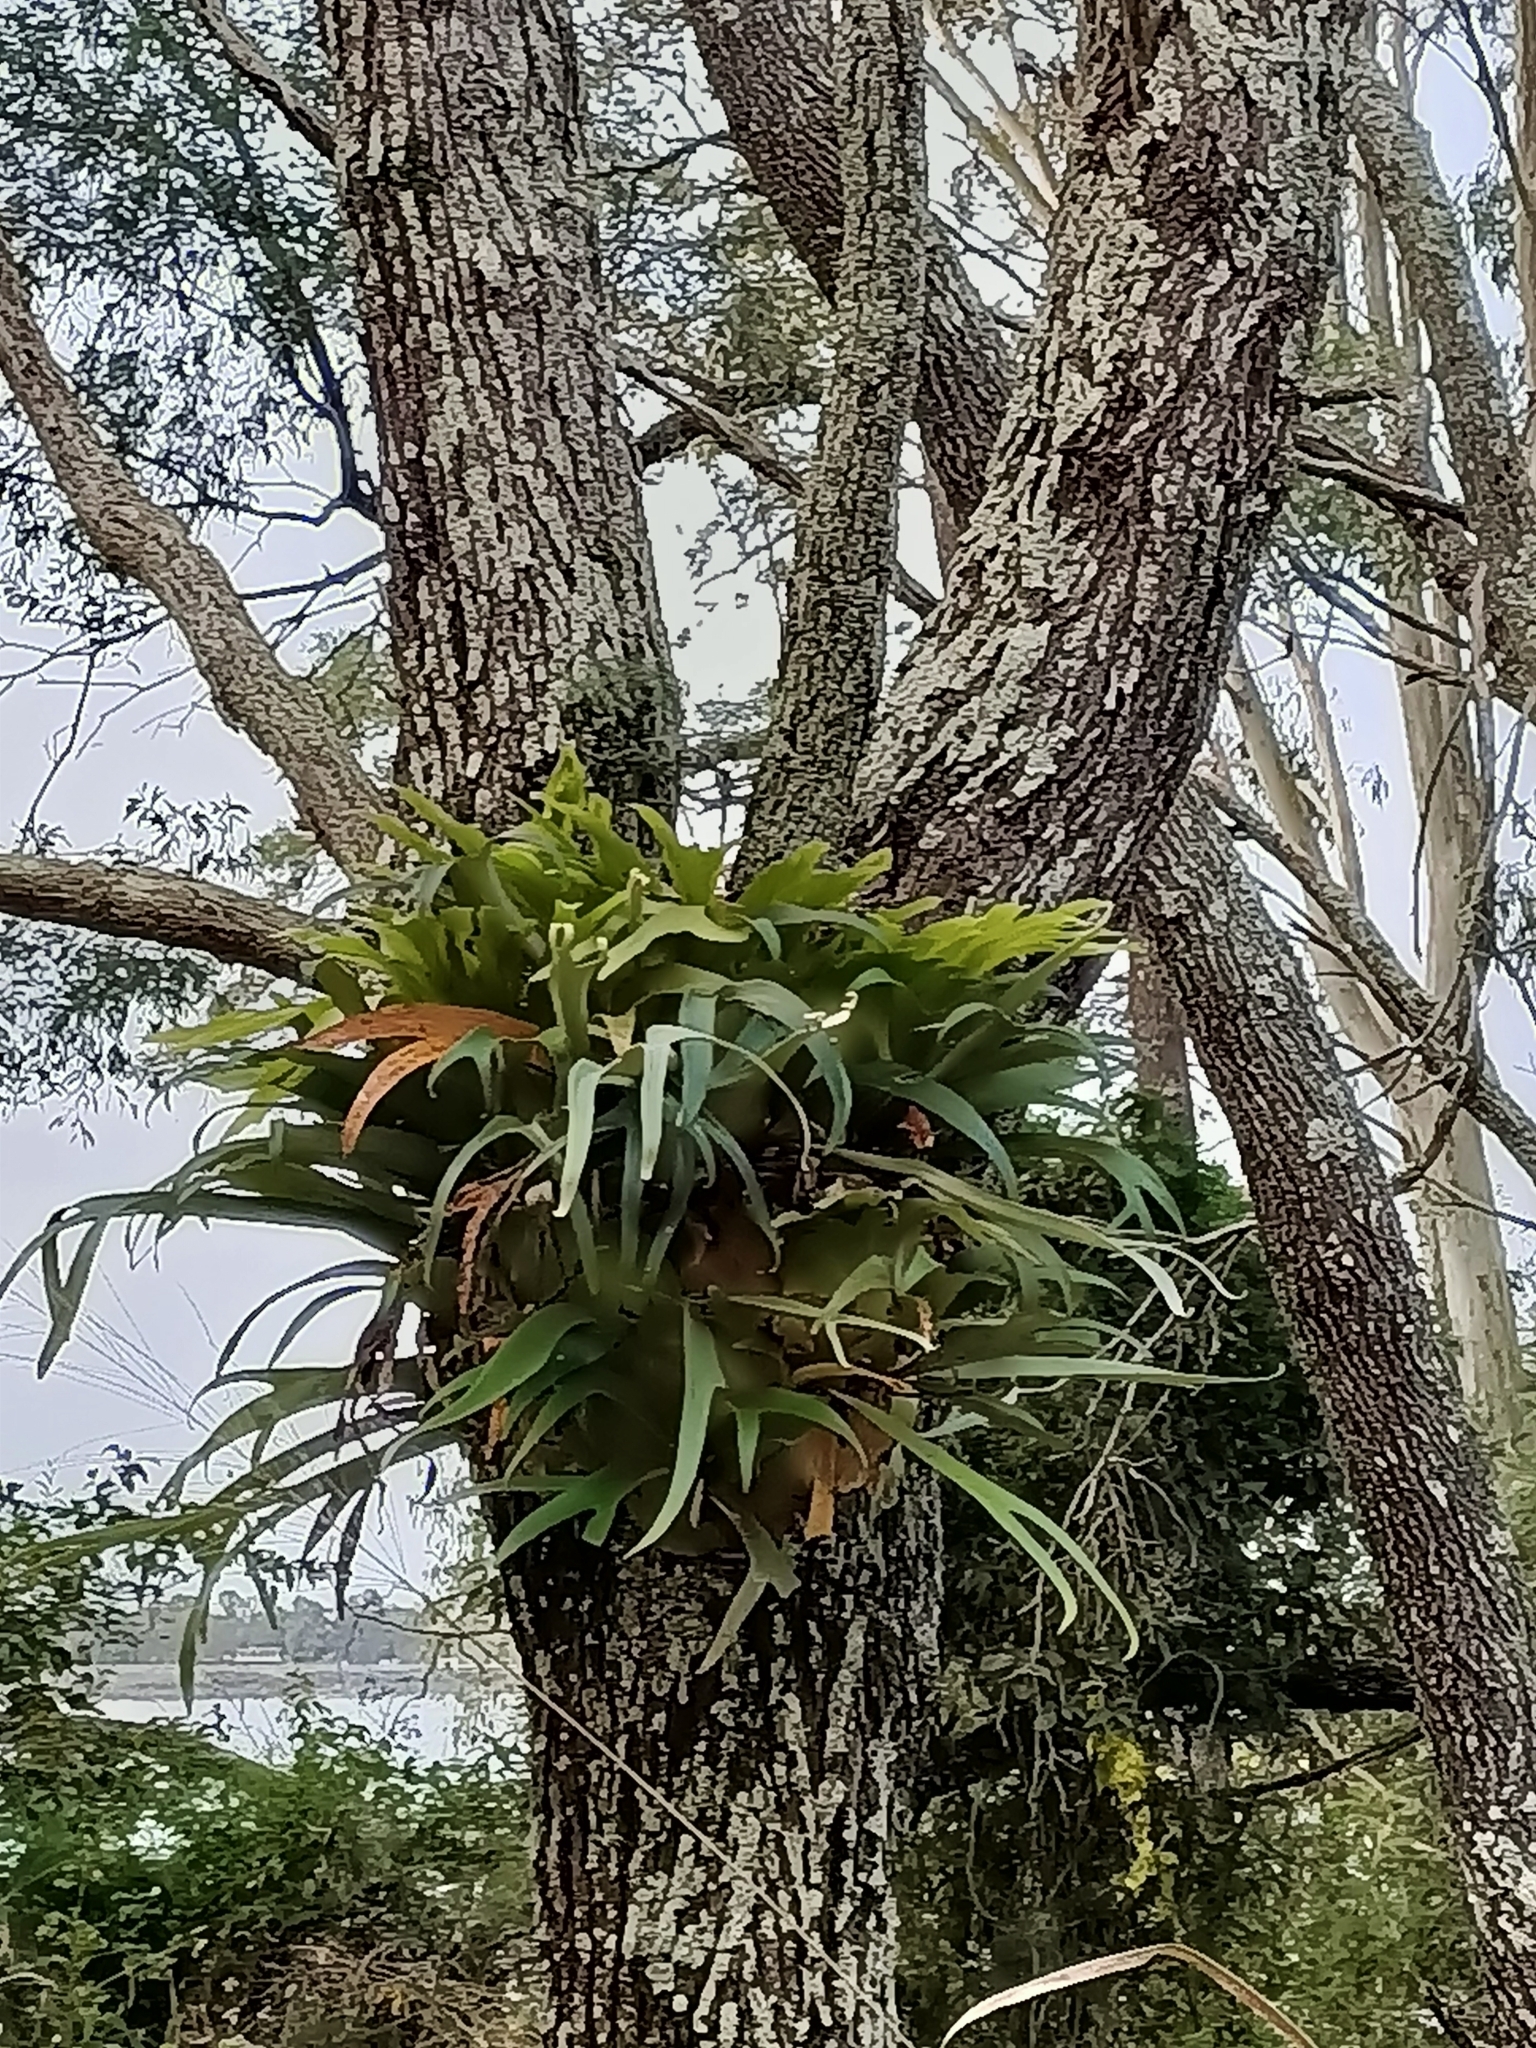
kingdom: Plantae
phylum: Tracheophyta
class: Polypodiopsida
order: Polypodiales
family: Polypodiaceae
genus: Platycerium
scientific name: Platycerium bifurcatum
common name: Elkhorn fern
